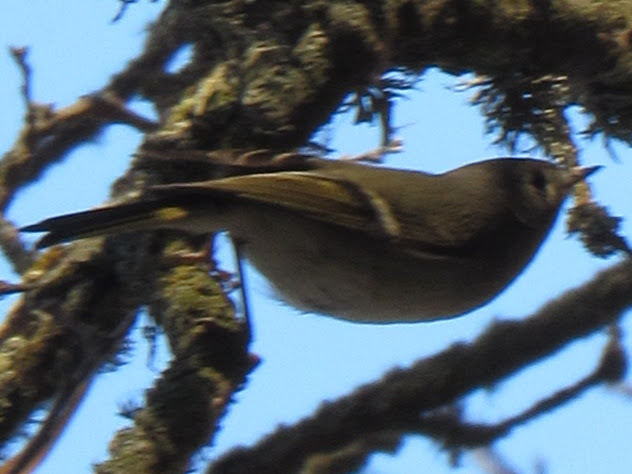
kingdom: Animalia
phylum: Chordata
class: Aves
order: Passeriformes
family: Regulidae
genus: Regulus
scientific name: Regulus calendula
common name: Ruby-crowned kinglet
